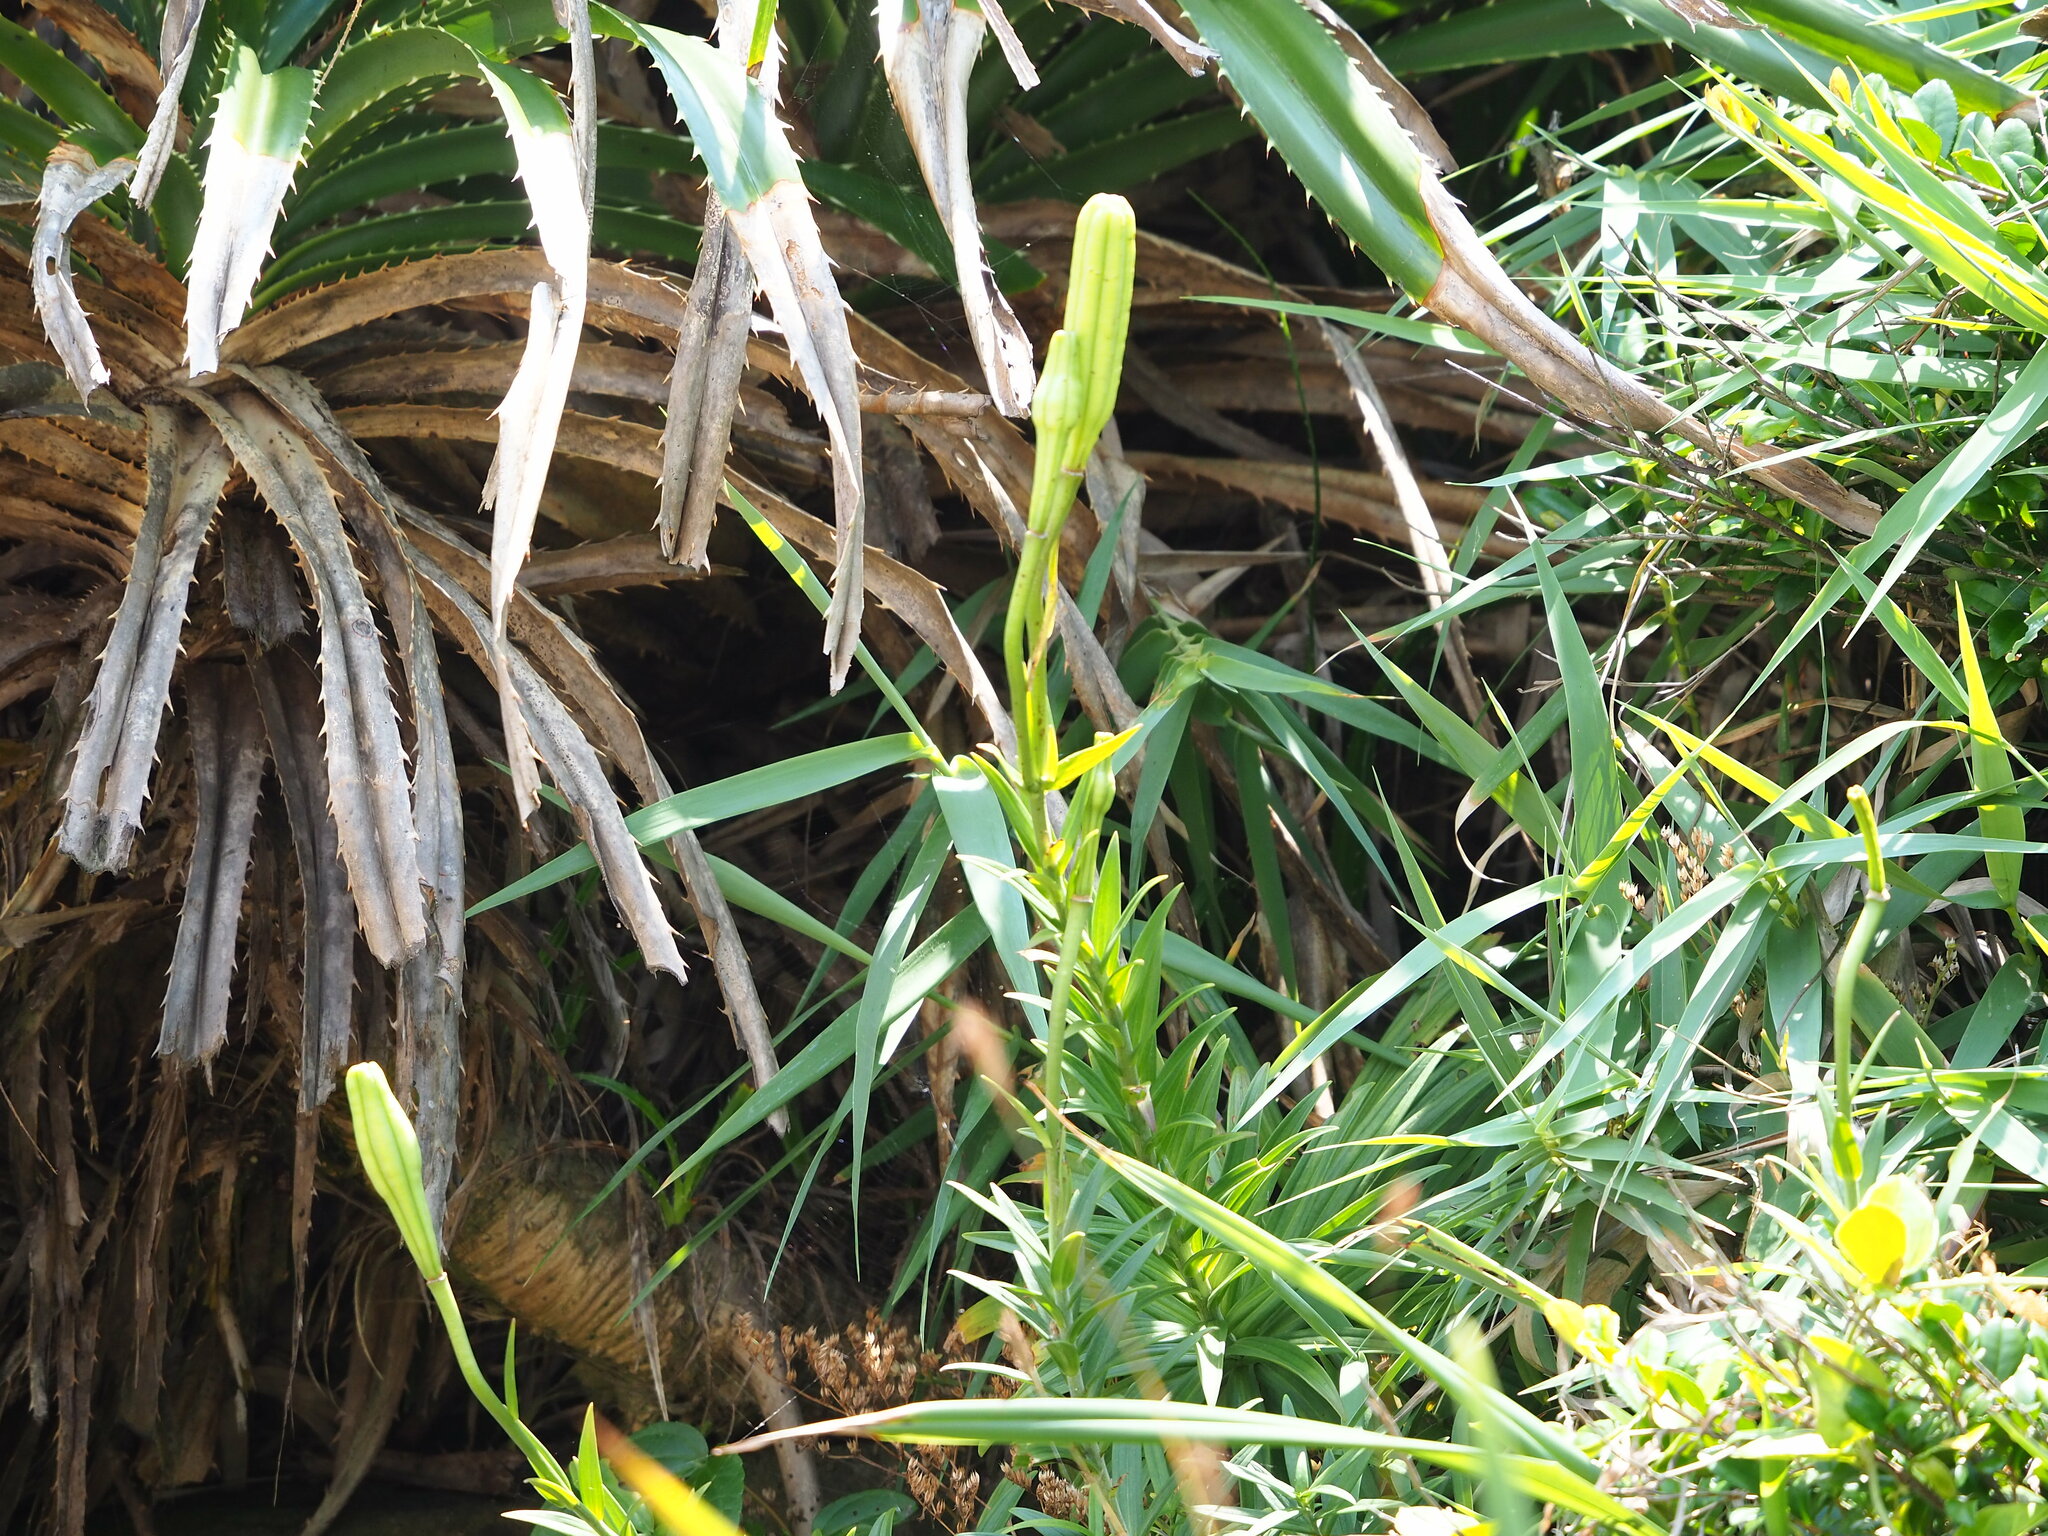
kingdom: Plantae
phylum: Tracheophyta
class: Liliopsida
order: Liliales
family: Liliaceae
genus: Lilium
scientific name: Lilium longiflorum
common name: Easter lily
